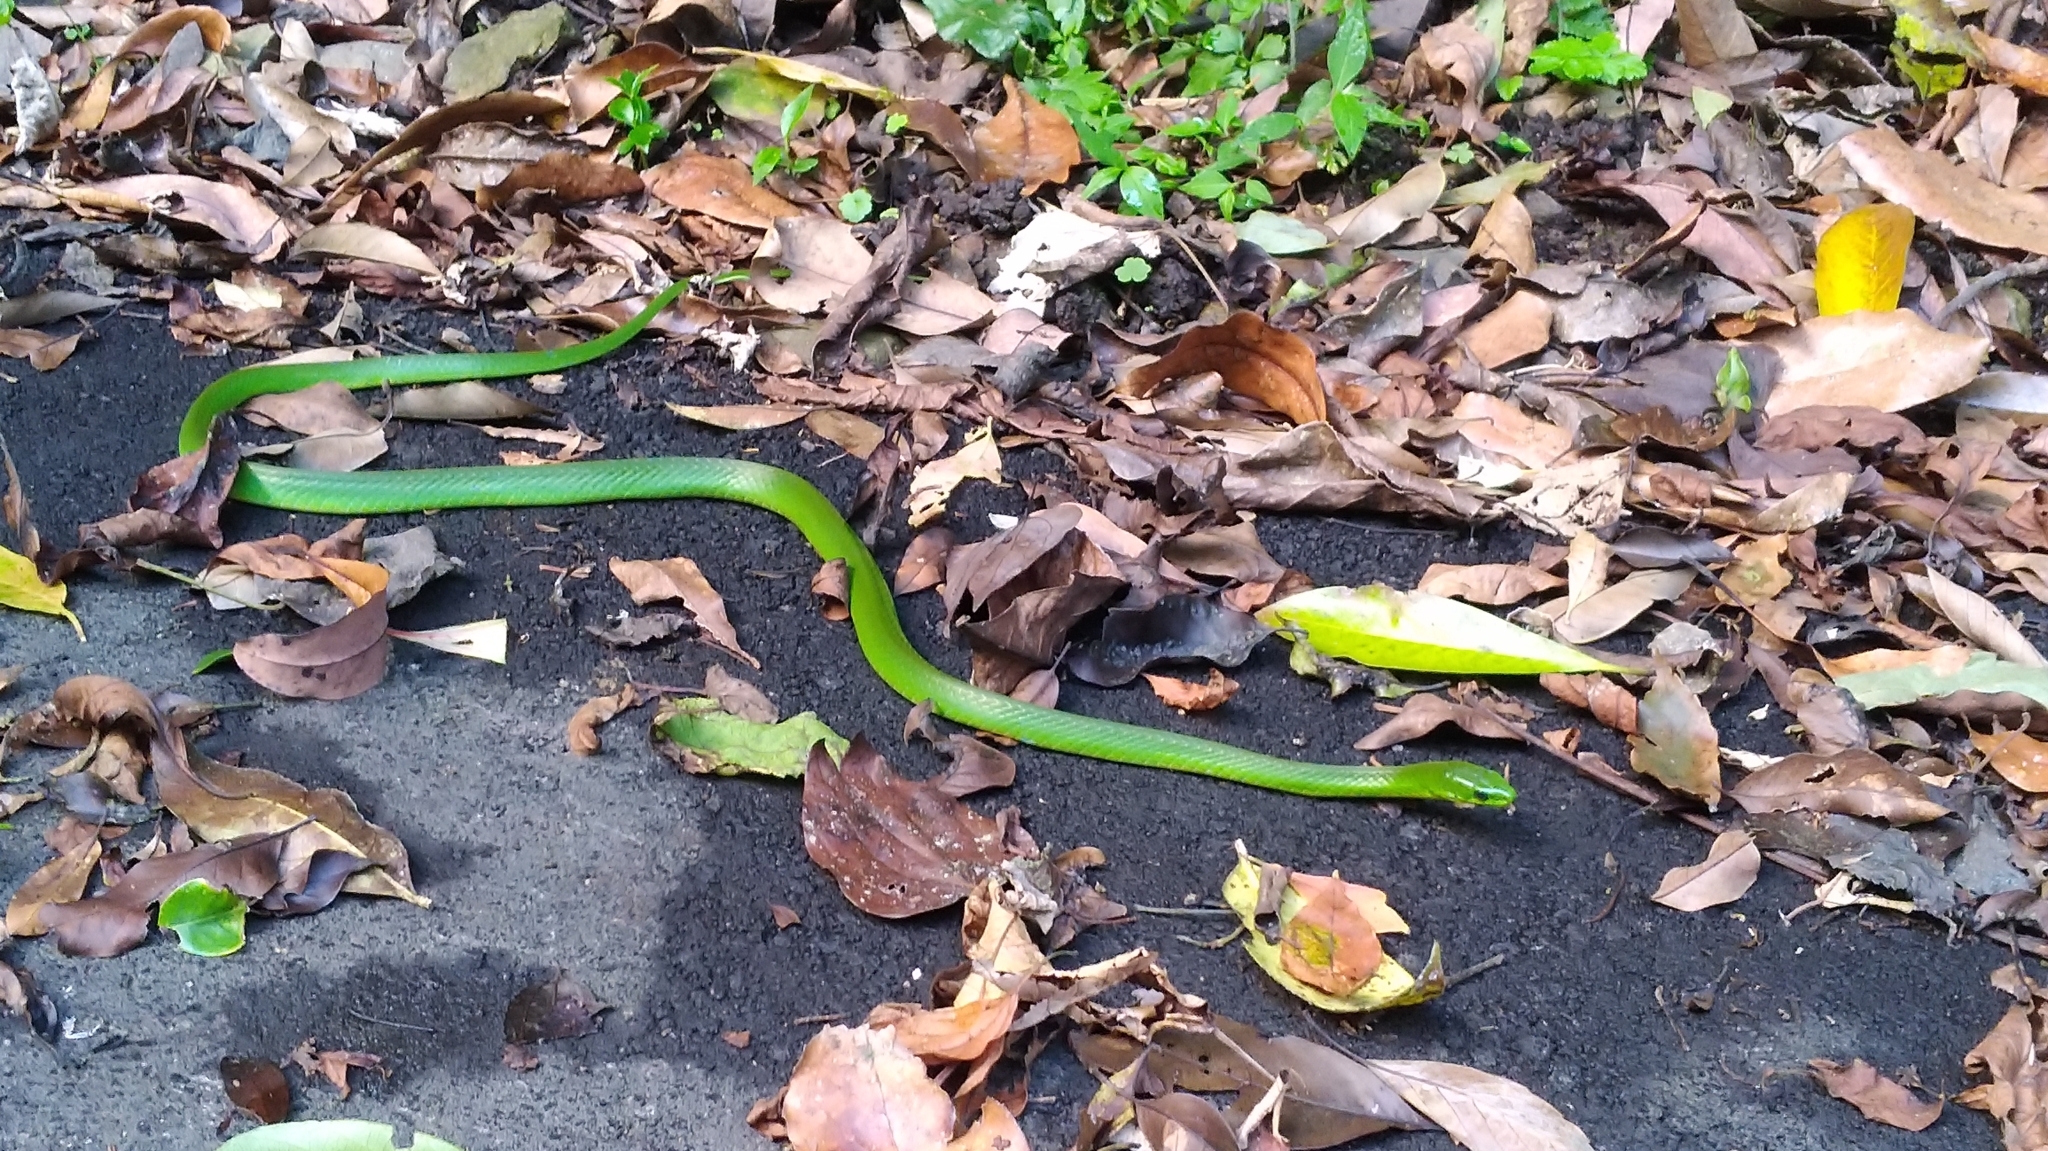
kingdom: Animalia
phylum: Chordata
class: Squamata
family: Colubridae
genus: Ptyas
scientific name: Ptyas major
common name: Chinese green snake
